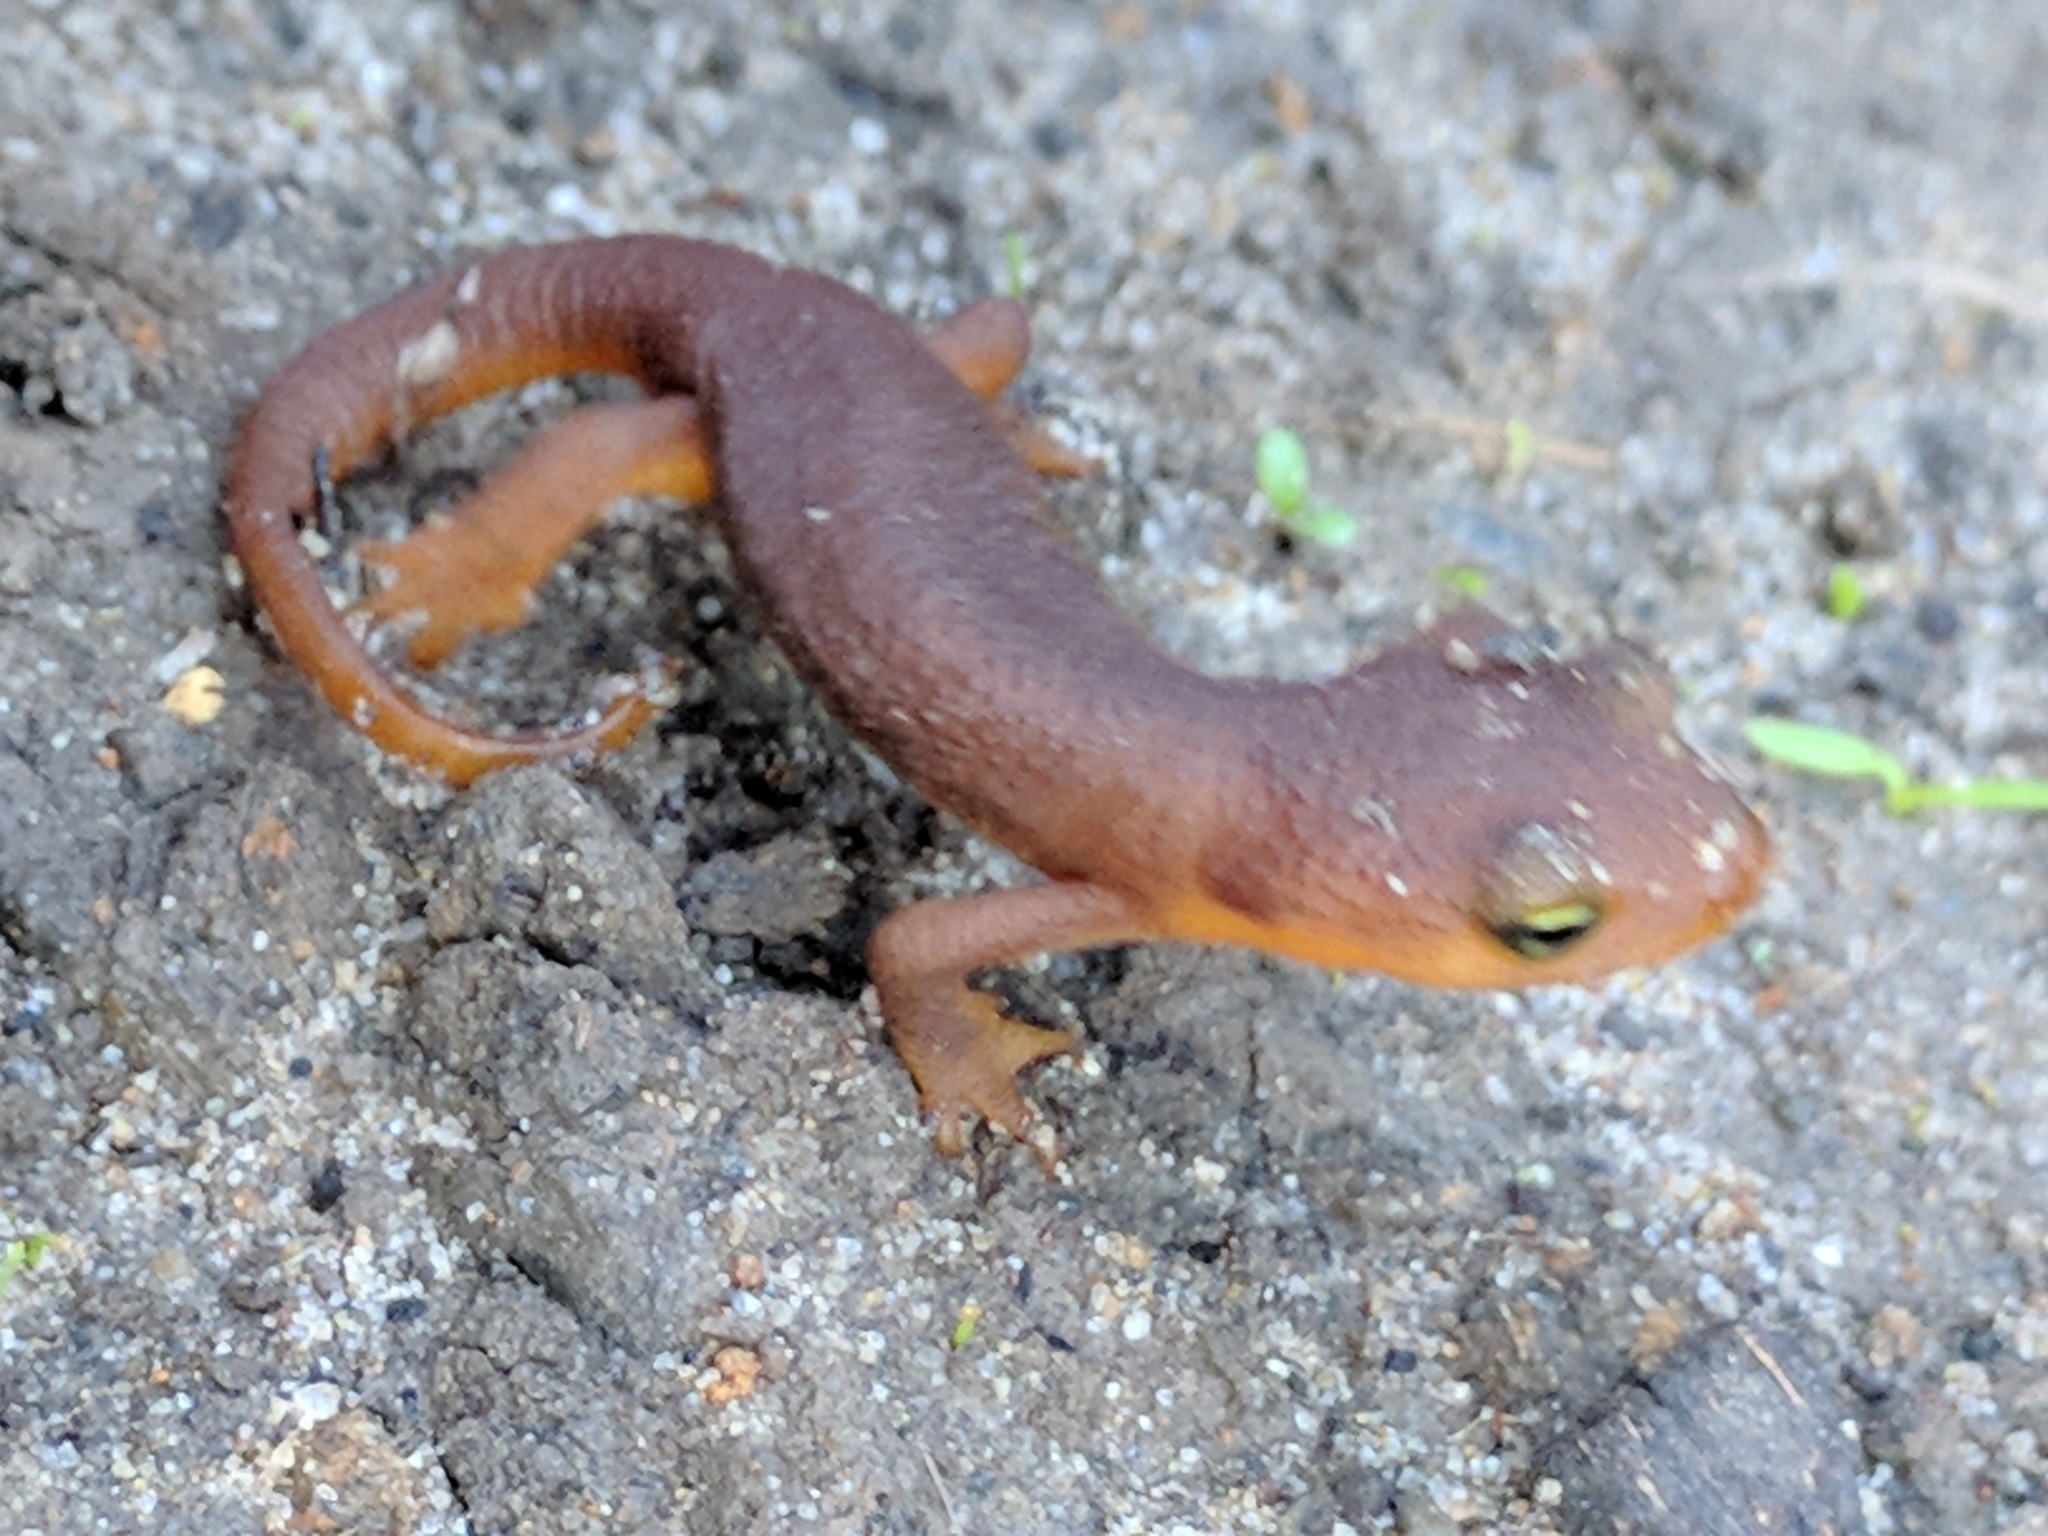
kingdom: Animalia
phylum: Chordata
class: Amphibia
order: Caudata
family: Salamandridae
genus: Taricha
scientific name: Taricha torosa
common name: California newt
